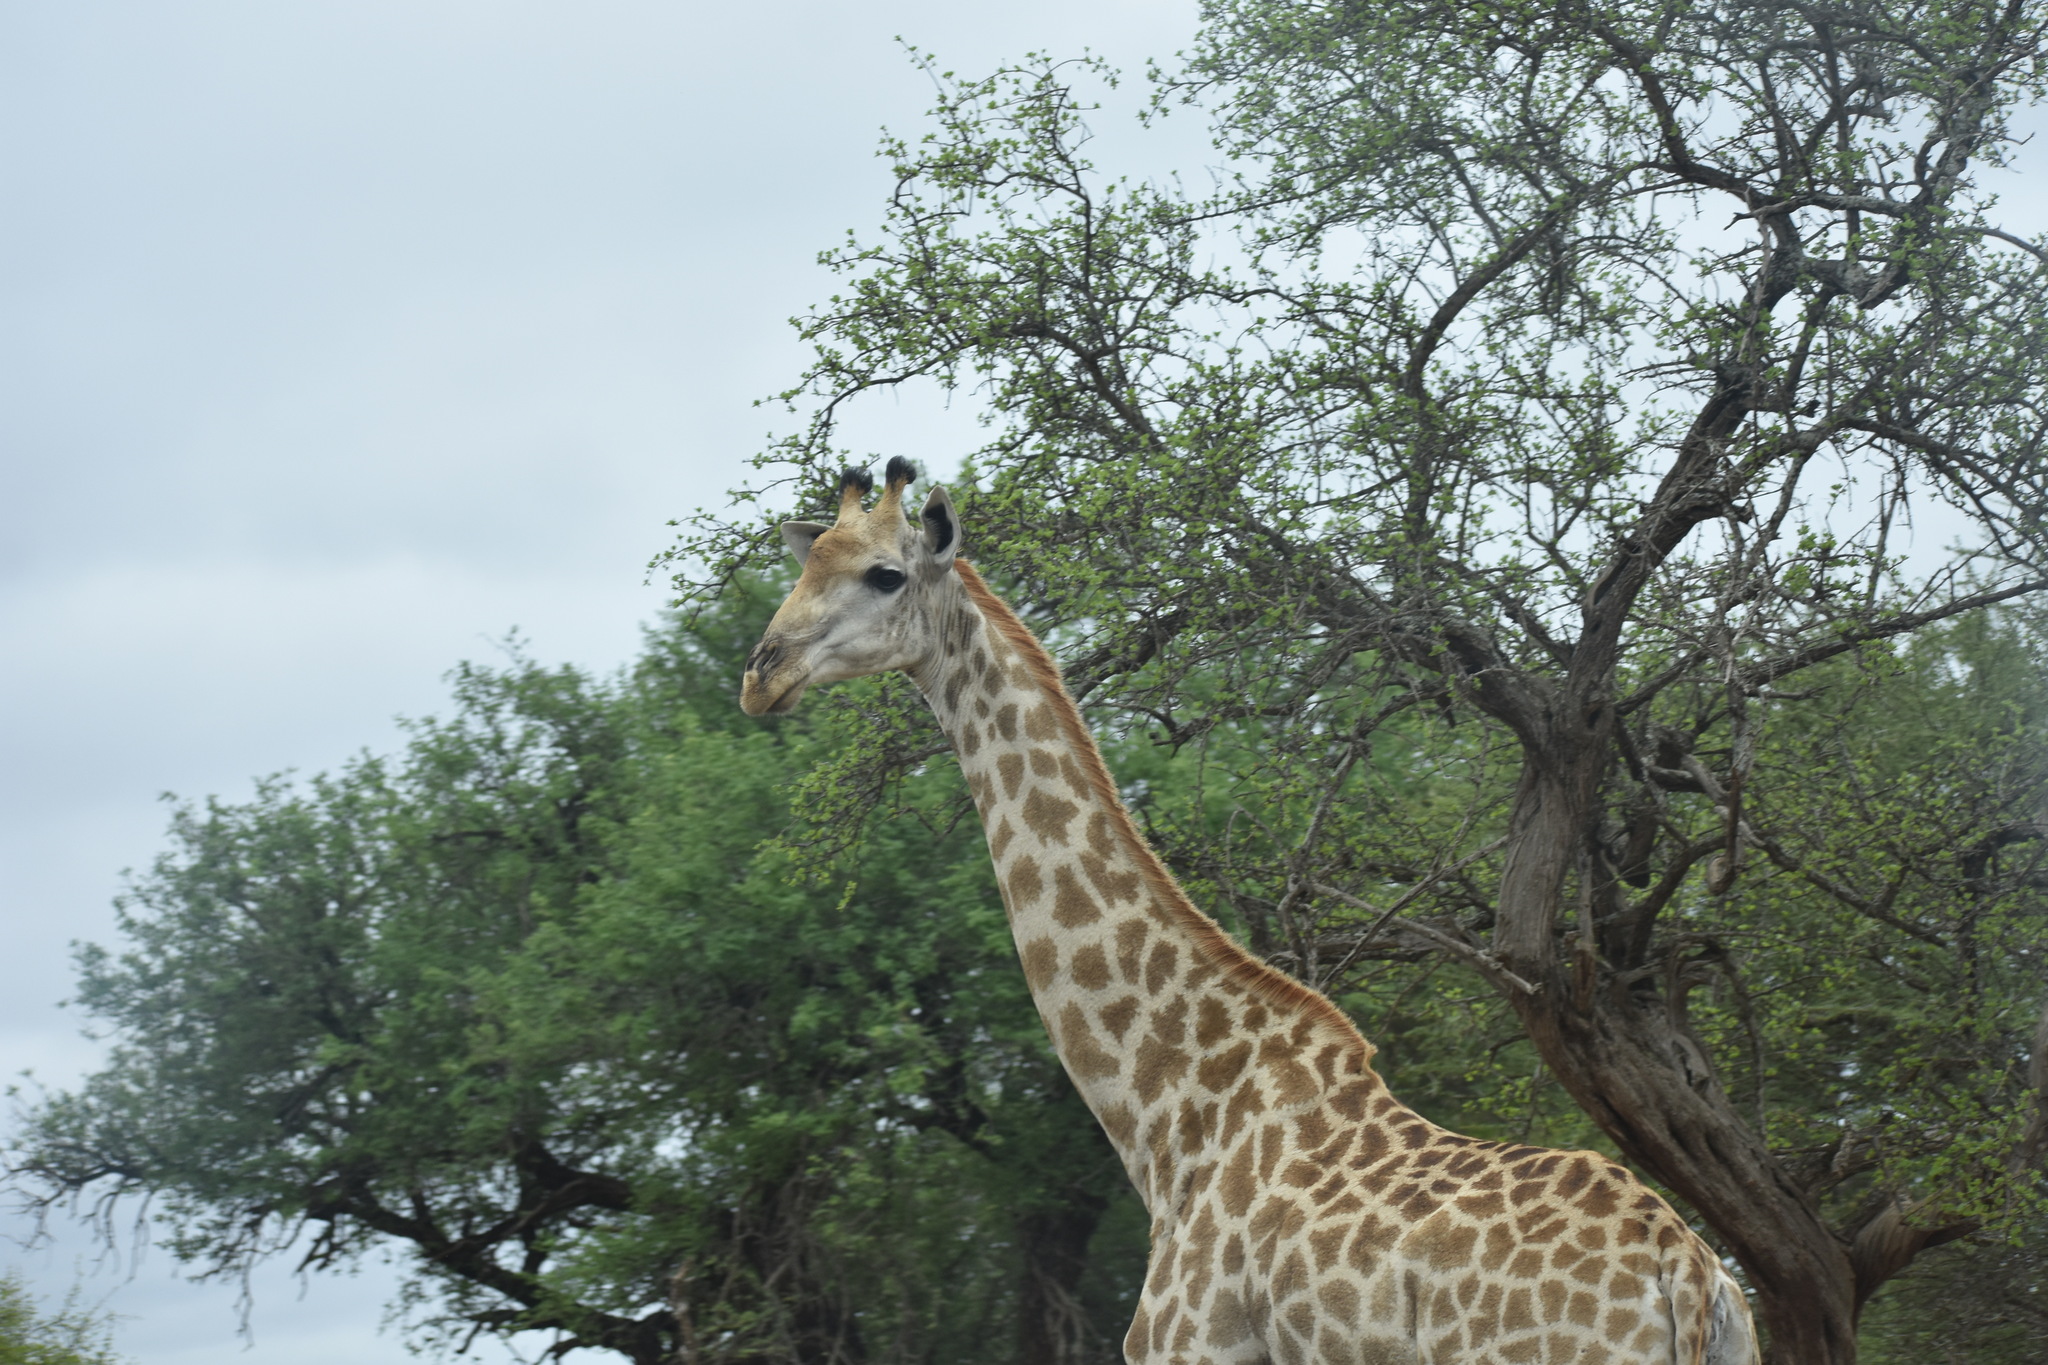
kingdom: Animalia
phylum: Chordata
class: Mammalia
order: Artiodactyla
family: Giraffidae
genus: Giraffa
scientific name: Giraffa giraffa
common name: Southern giraffe
